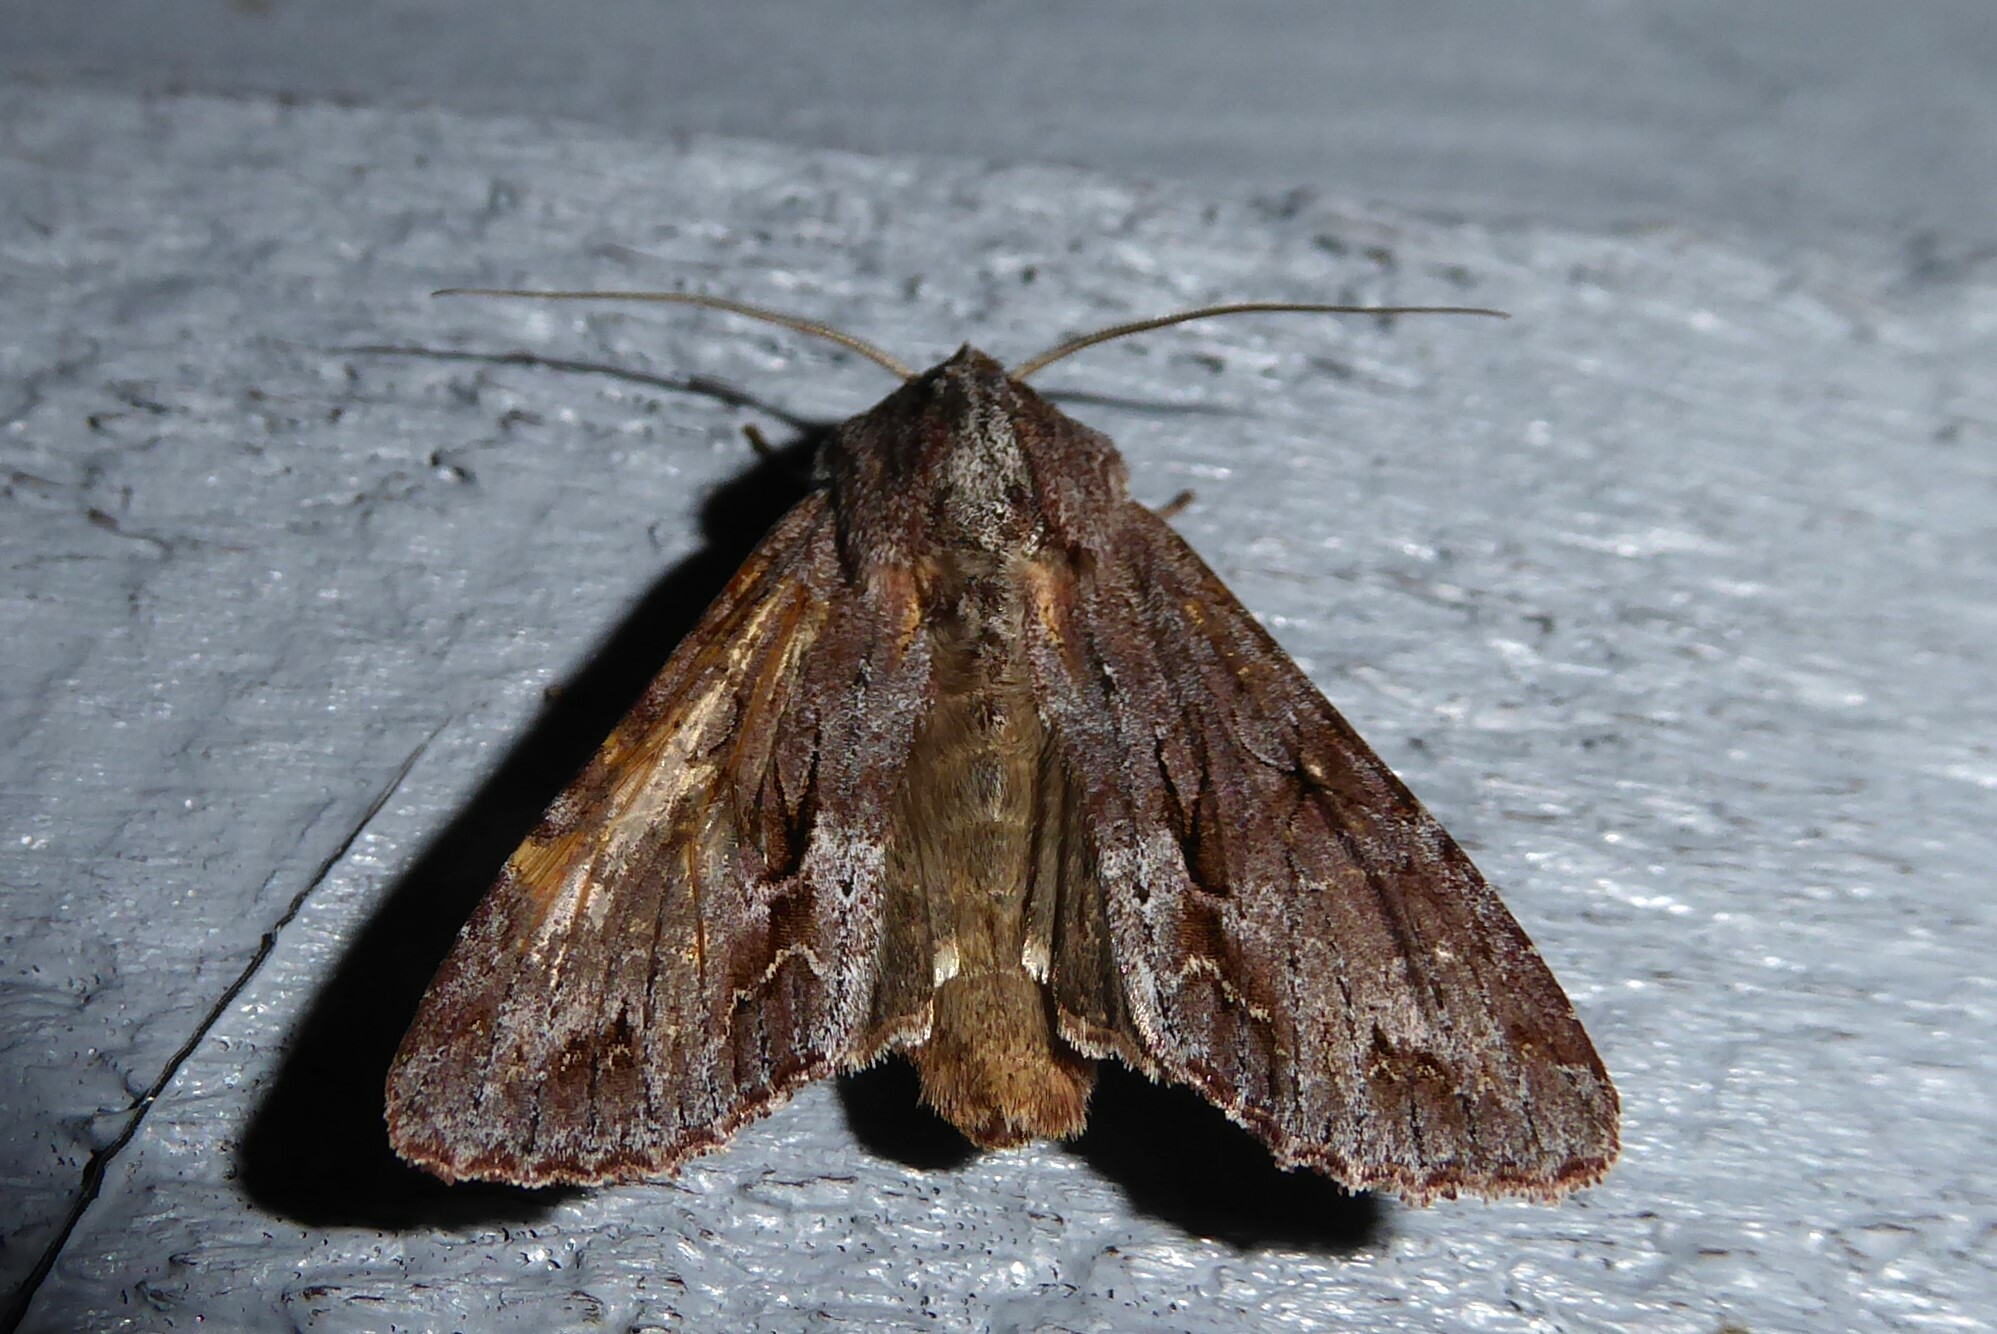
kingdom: Animalia
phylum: Arthropoda
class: Insecta
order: Lepidoptera
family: Noctuidae
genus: Ichneutica
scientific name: Ichneutica
